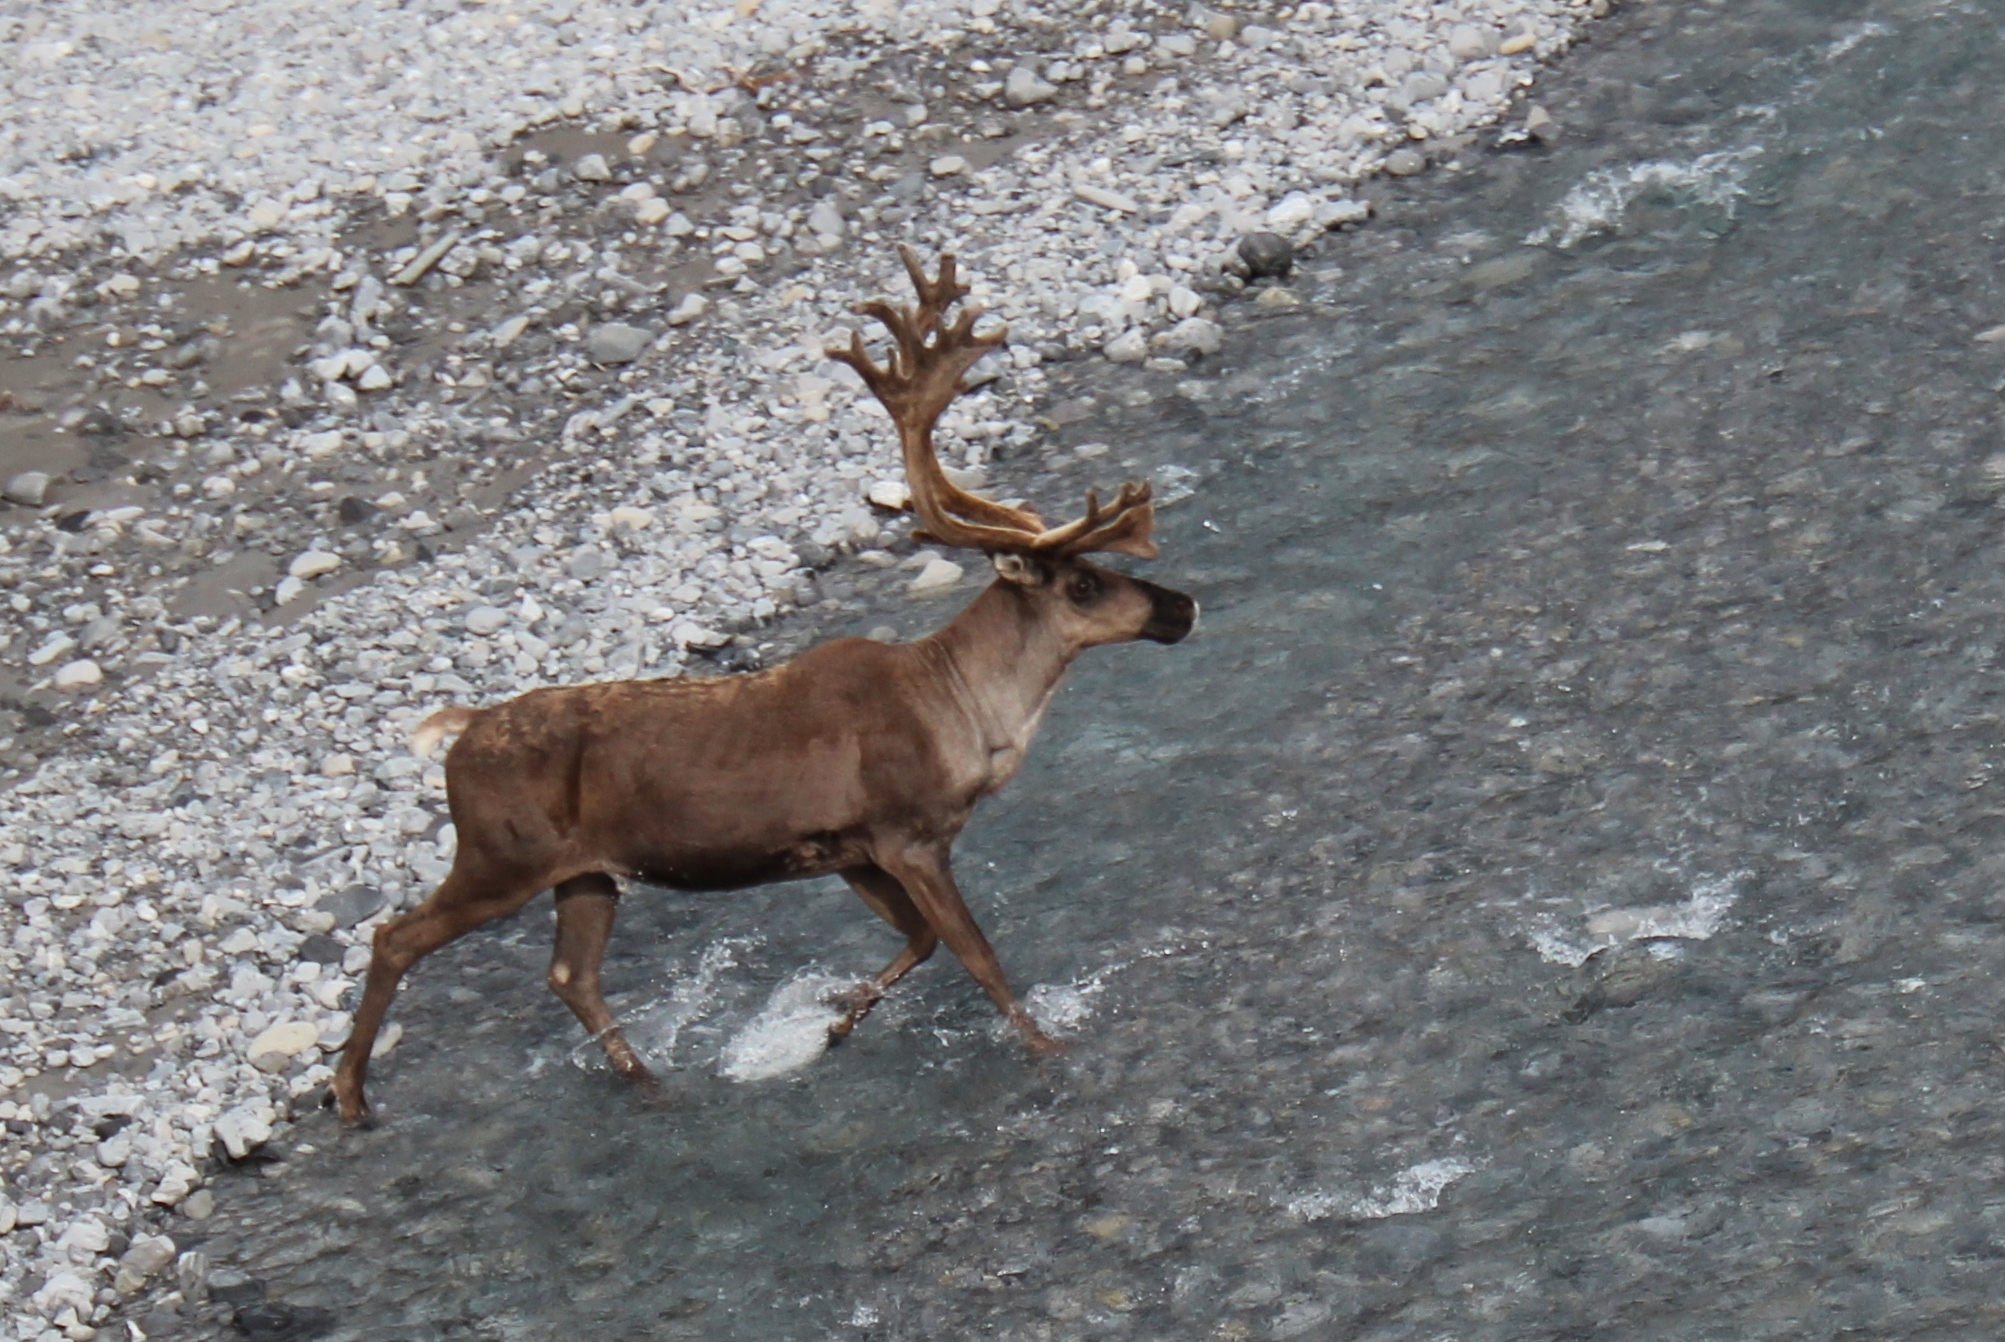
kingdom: Animalia
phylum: Chordata
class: Mammalia
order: Artiodactyla
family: Cervidae
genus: Rangifer
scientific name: Rangifer tarandus
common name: Reindeer
